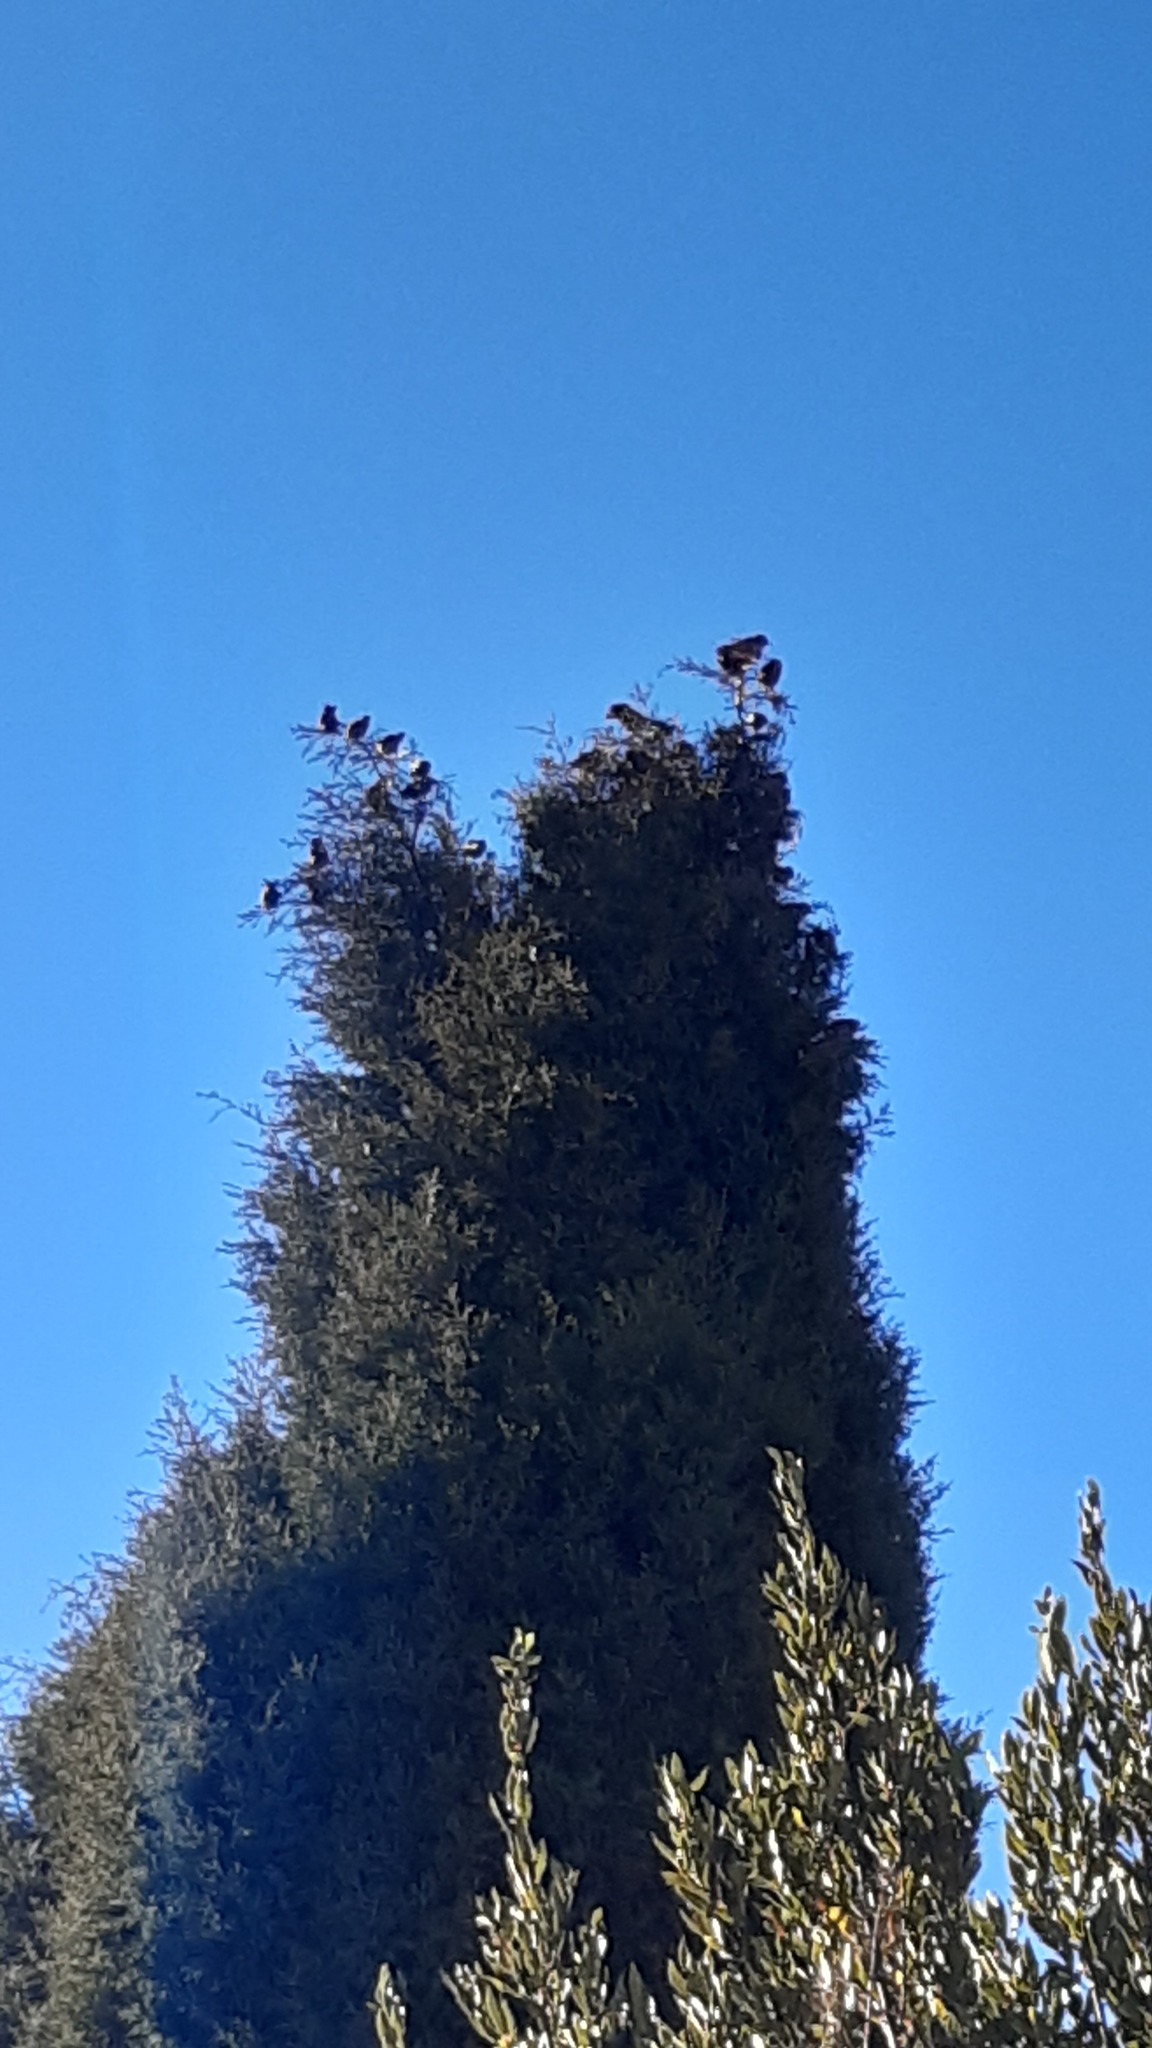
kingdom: Animalia
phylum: Chordata
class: Aves
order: Passeriformes
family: Sturnidae
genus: Sturnus
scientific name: Sturnus vulgaris
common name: Common starling
